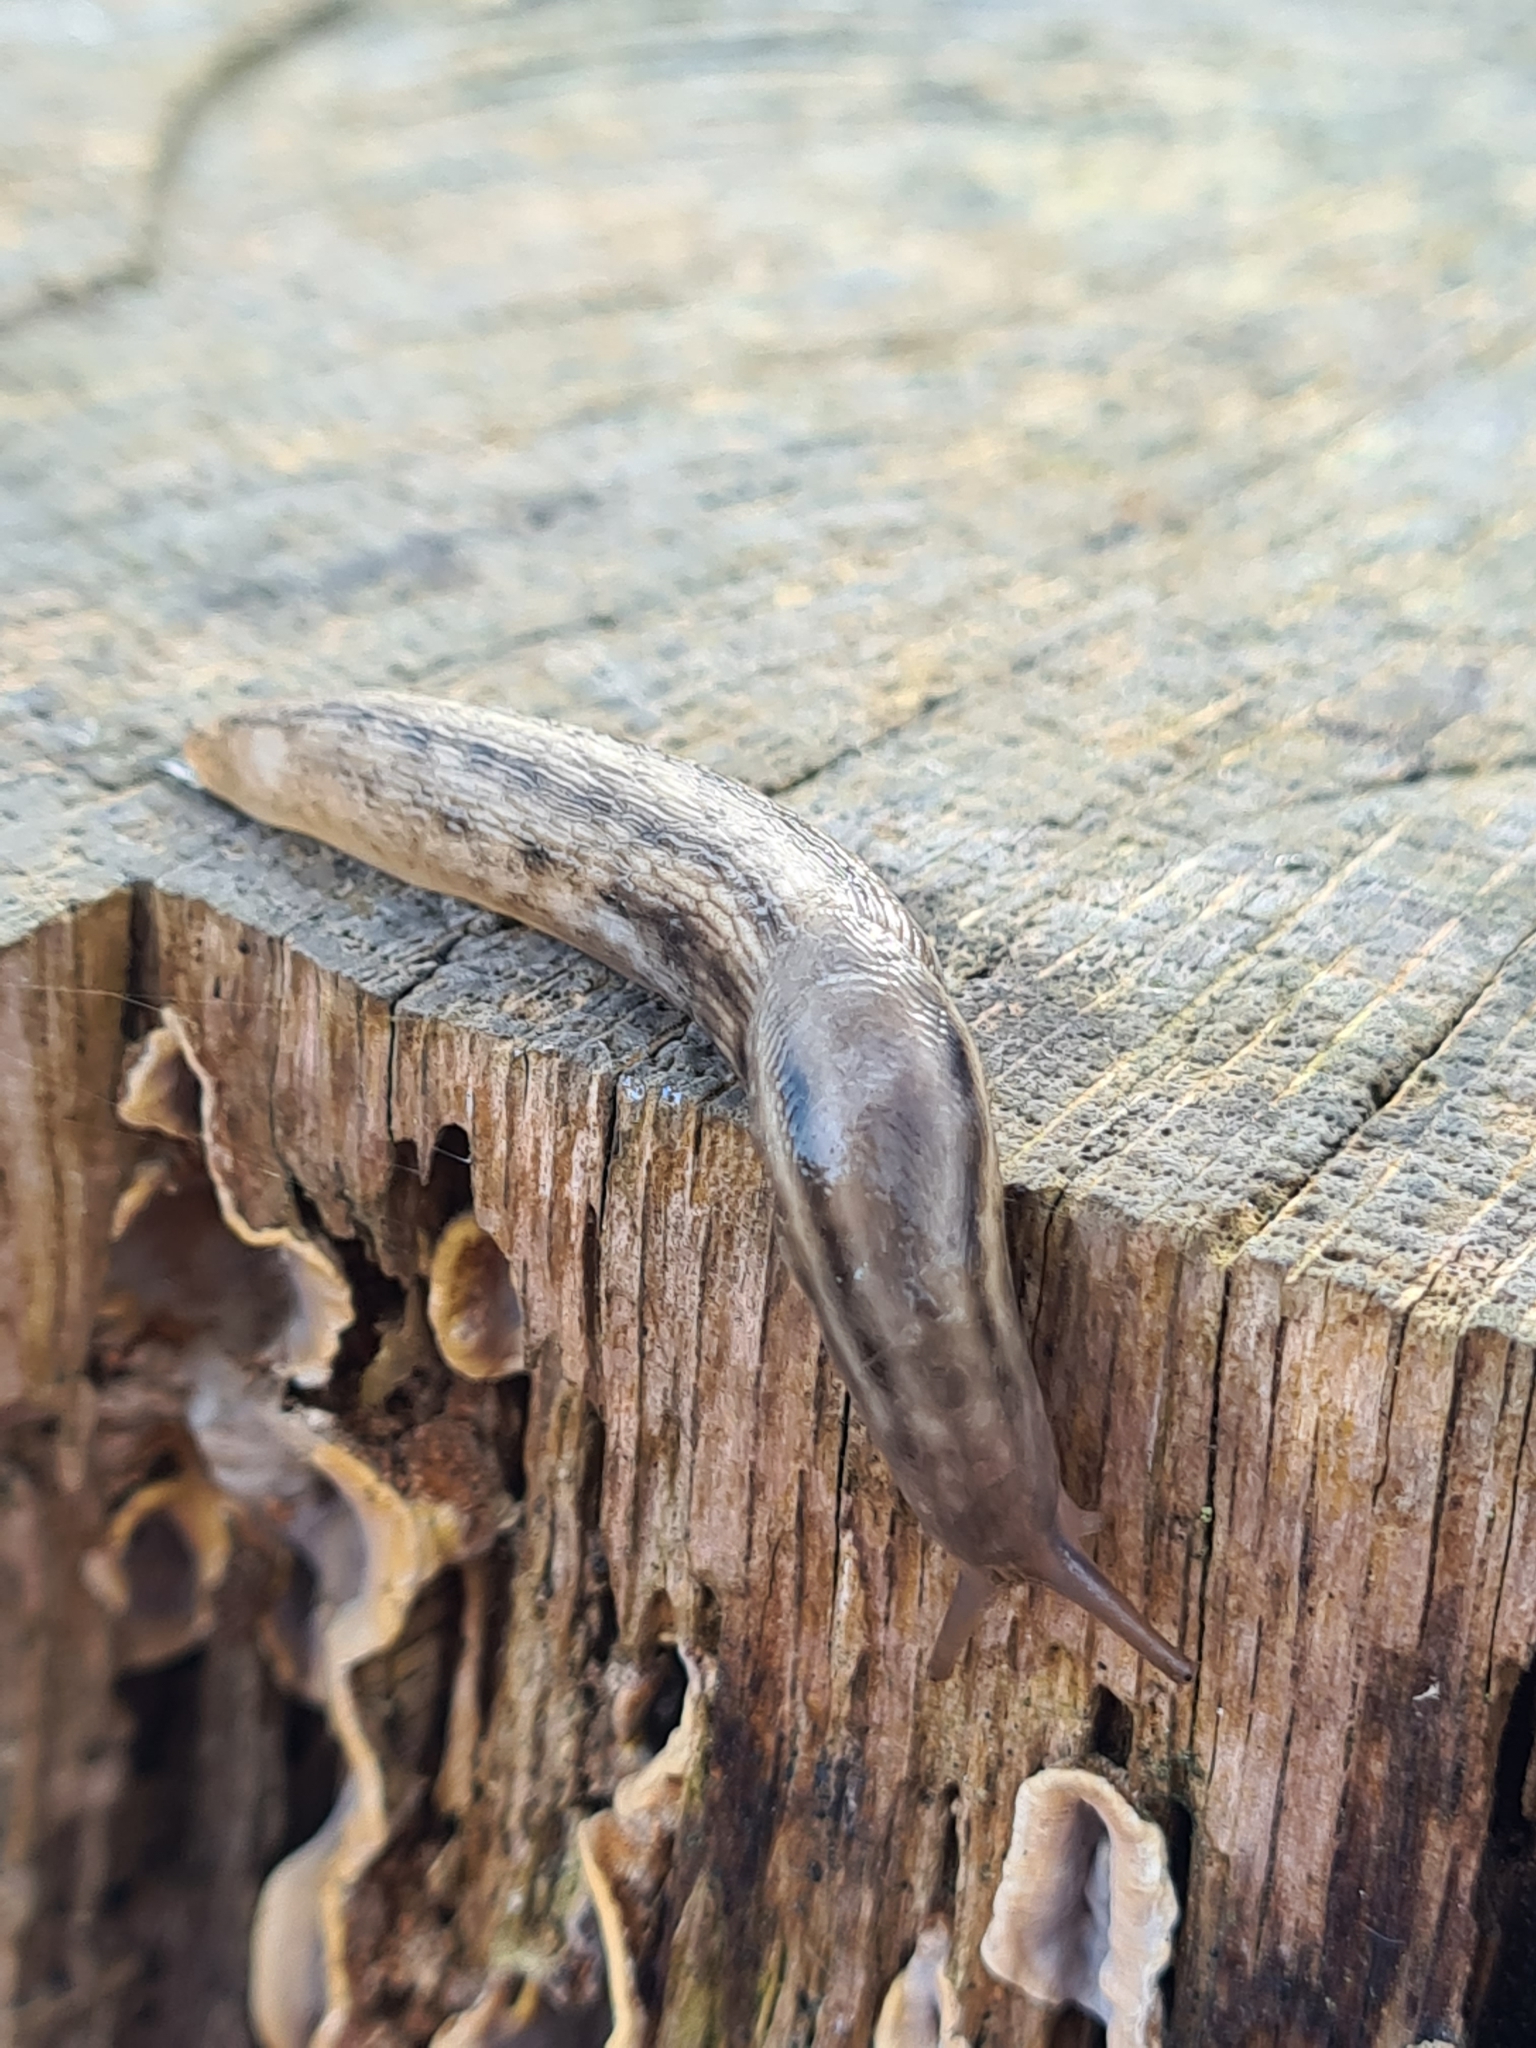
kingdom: Animalia
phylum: Mollusca
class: Gastropoda
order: Stylommatophora
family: Limacidae
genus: Lehmannia
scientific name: Lehmannia marginata
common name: Tree slug
